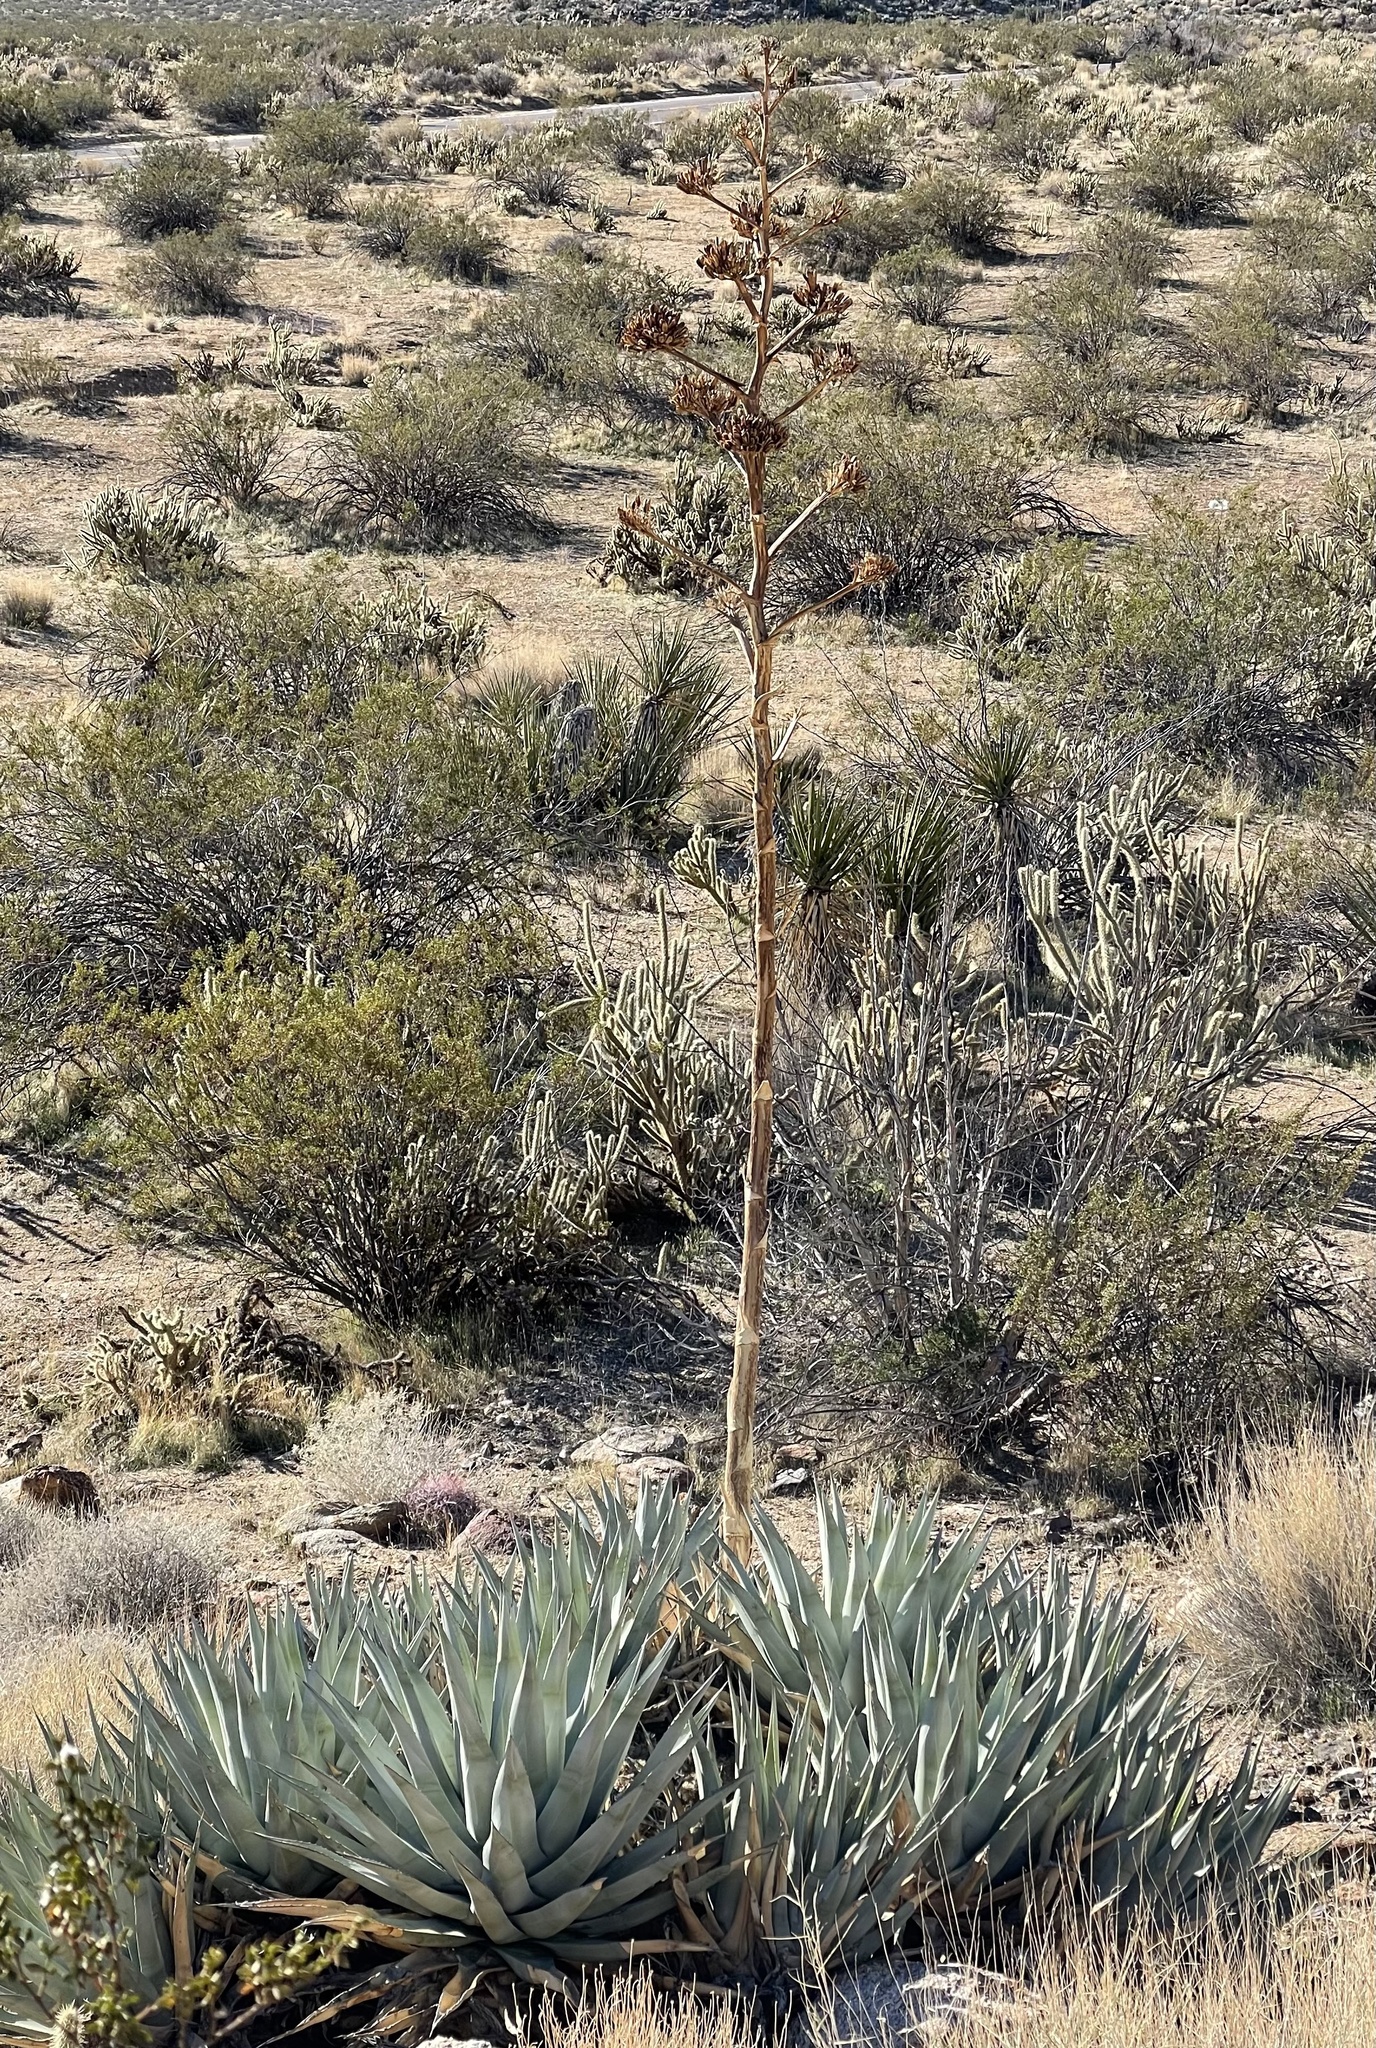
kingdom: Plantae
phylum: Tracheophyta
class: Liliopsida
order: Asparagales
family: Asparagaceae
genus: Agave
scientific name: Agave deserti
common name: Desert agave
